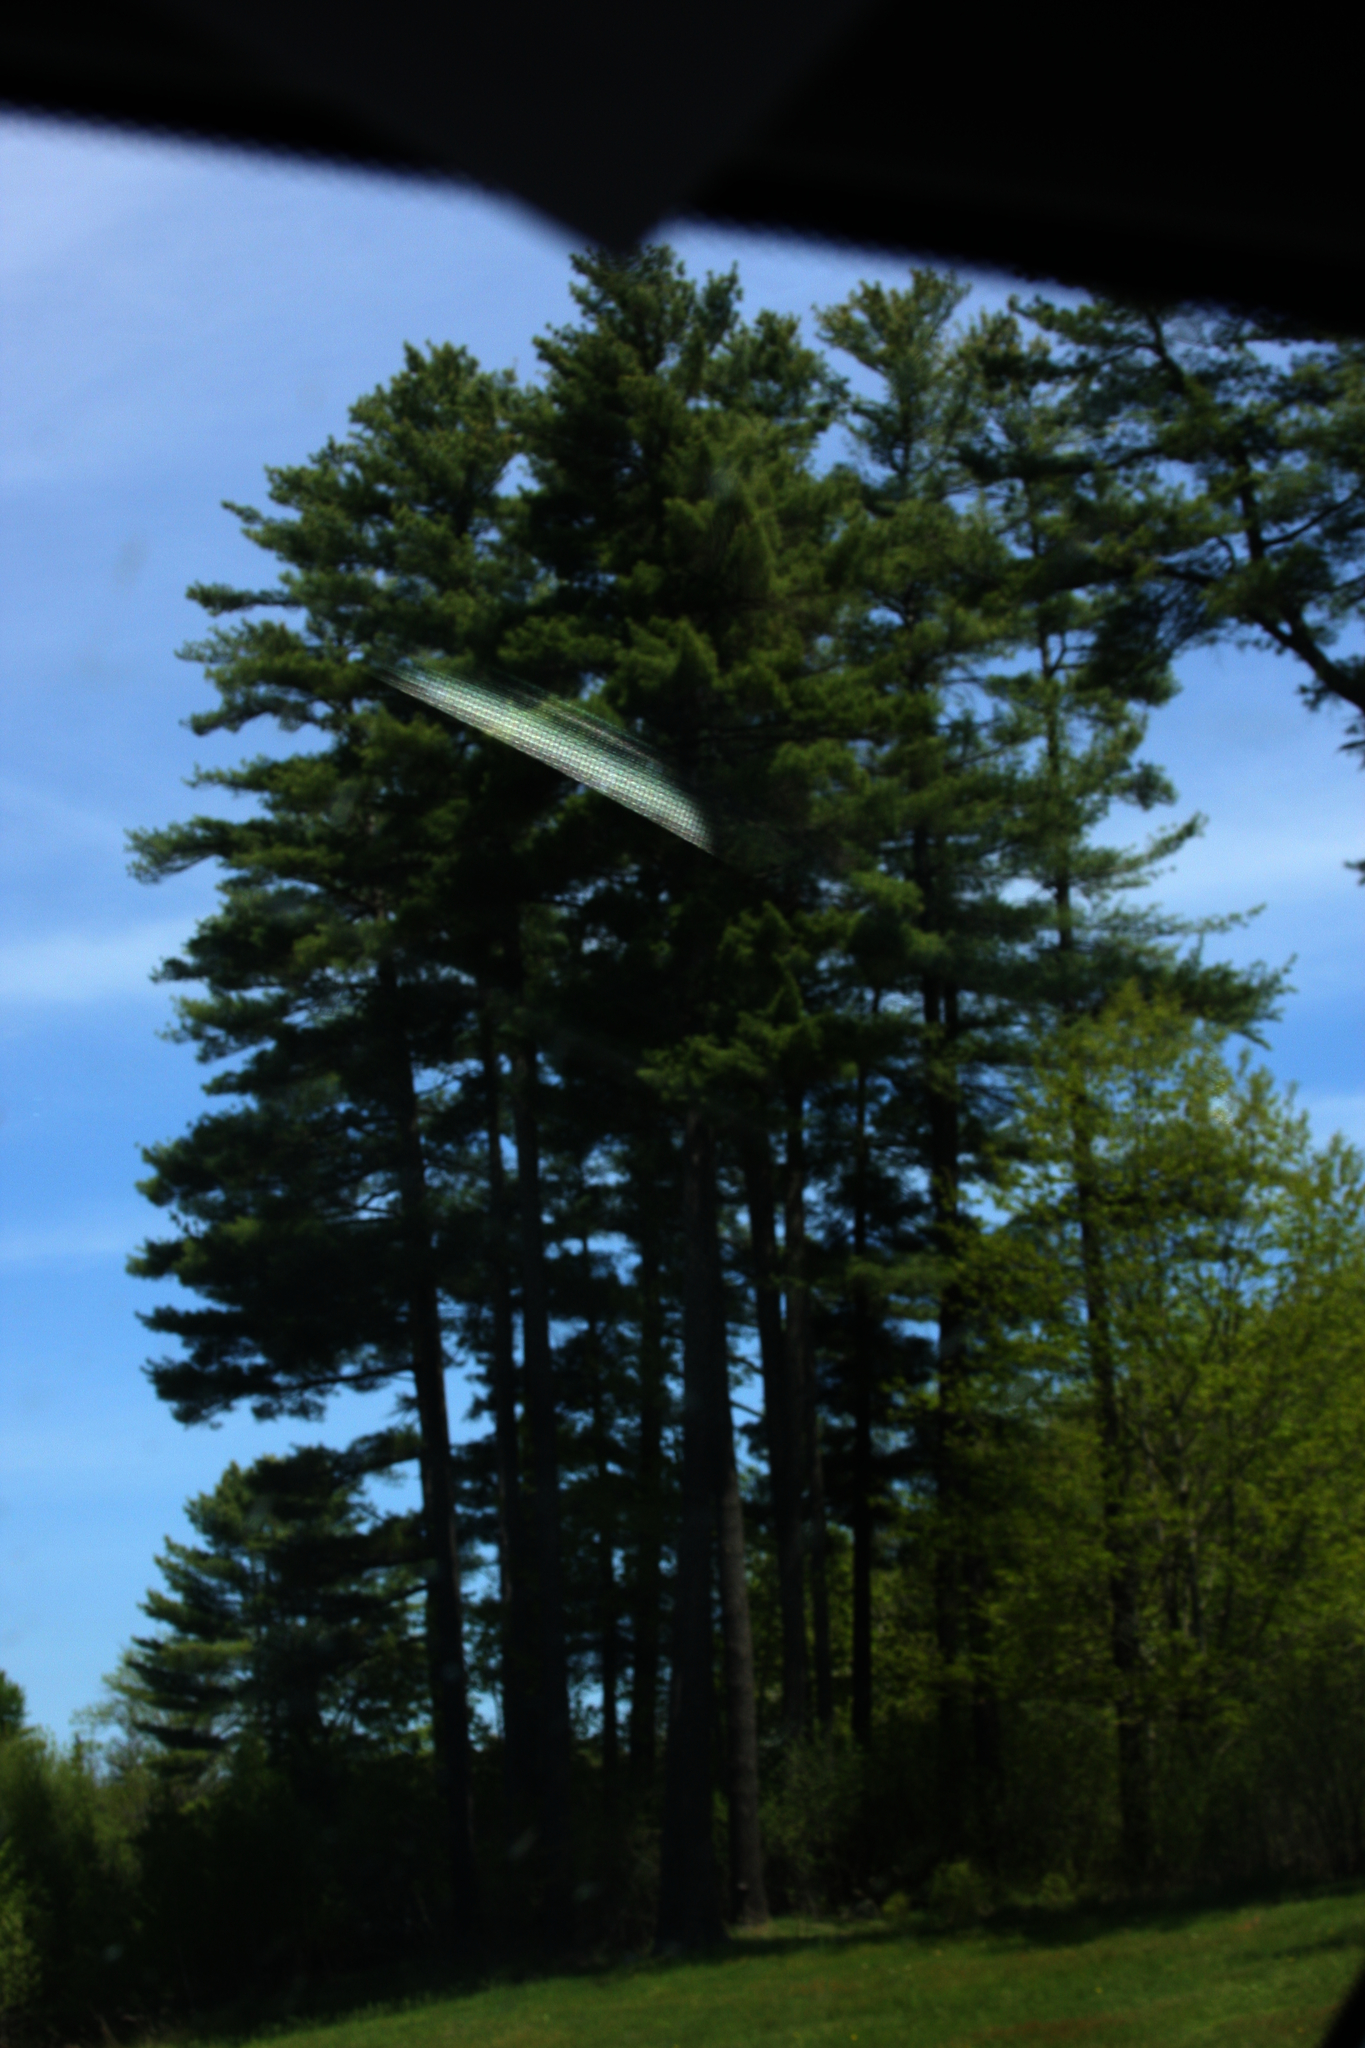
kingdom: Plantae
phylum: Tracheophyta
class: Pinopsida
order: Pinales
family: Pinaceae
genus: Pinus
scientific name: Pinus strobus
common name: Weymouth pine
